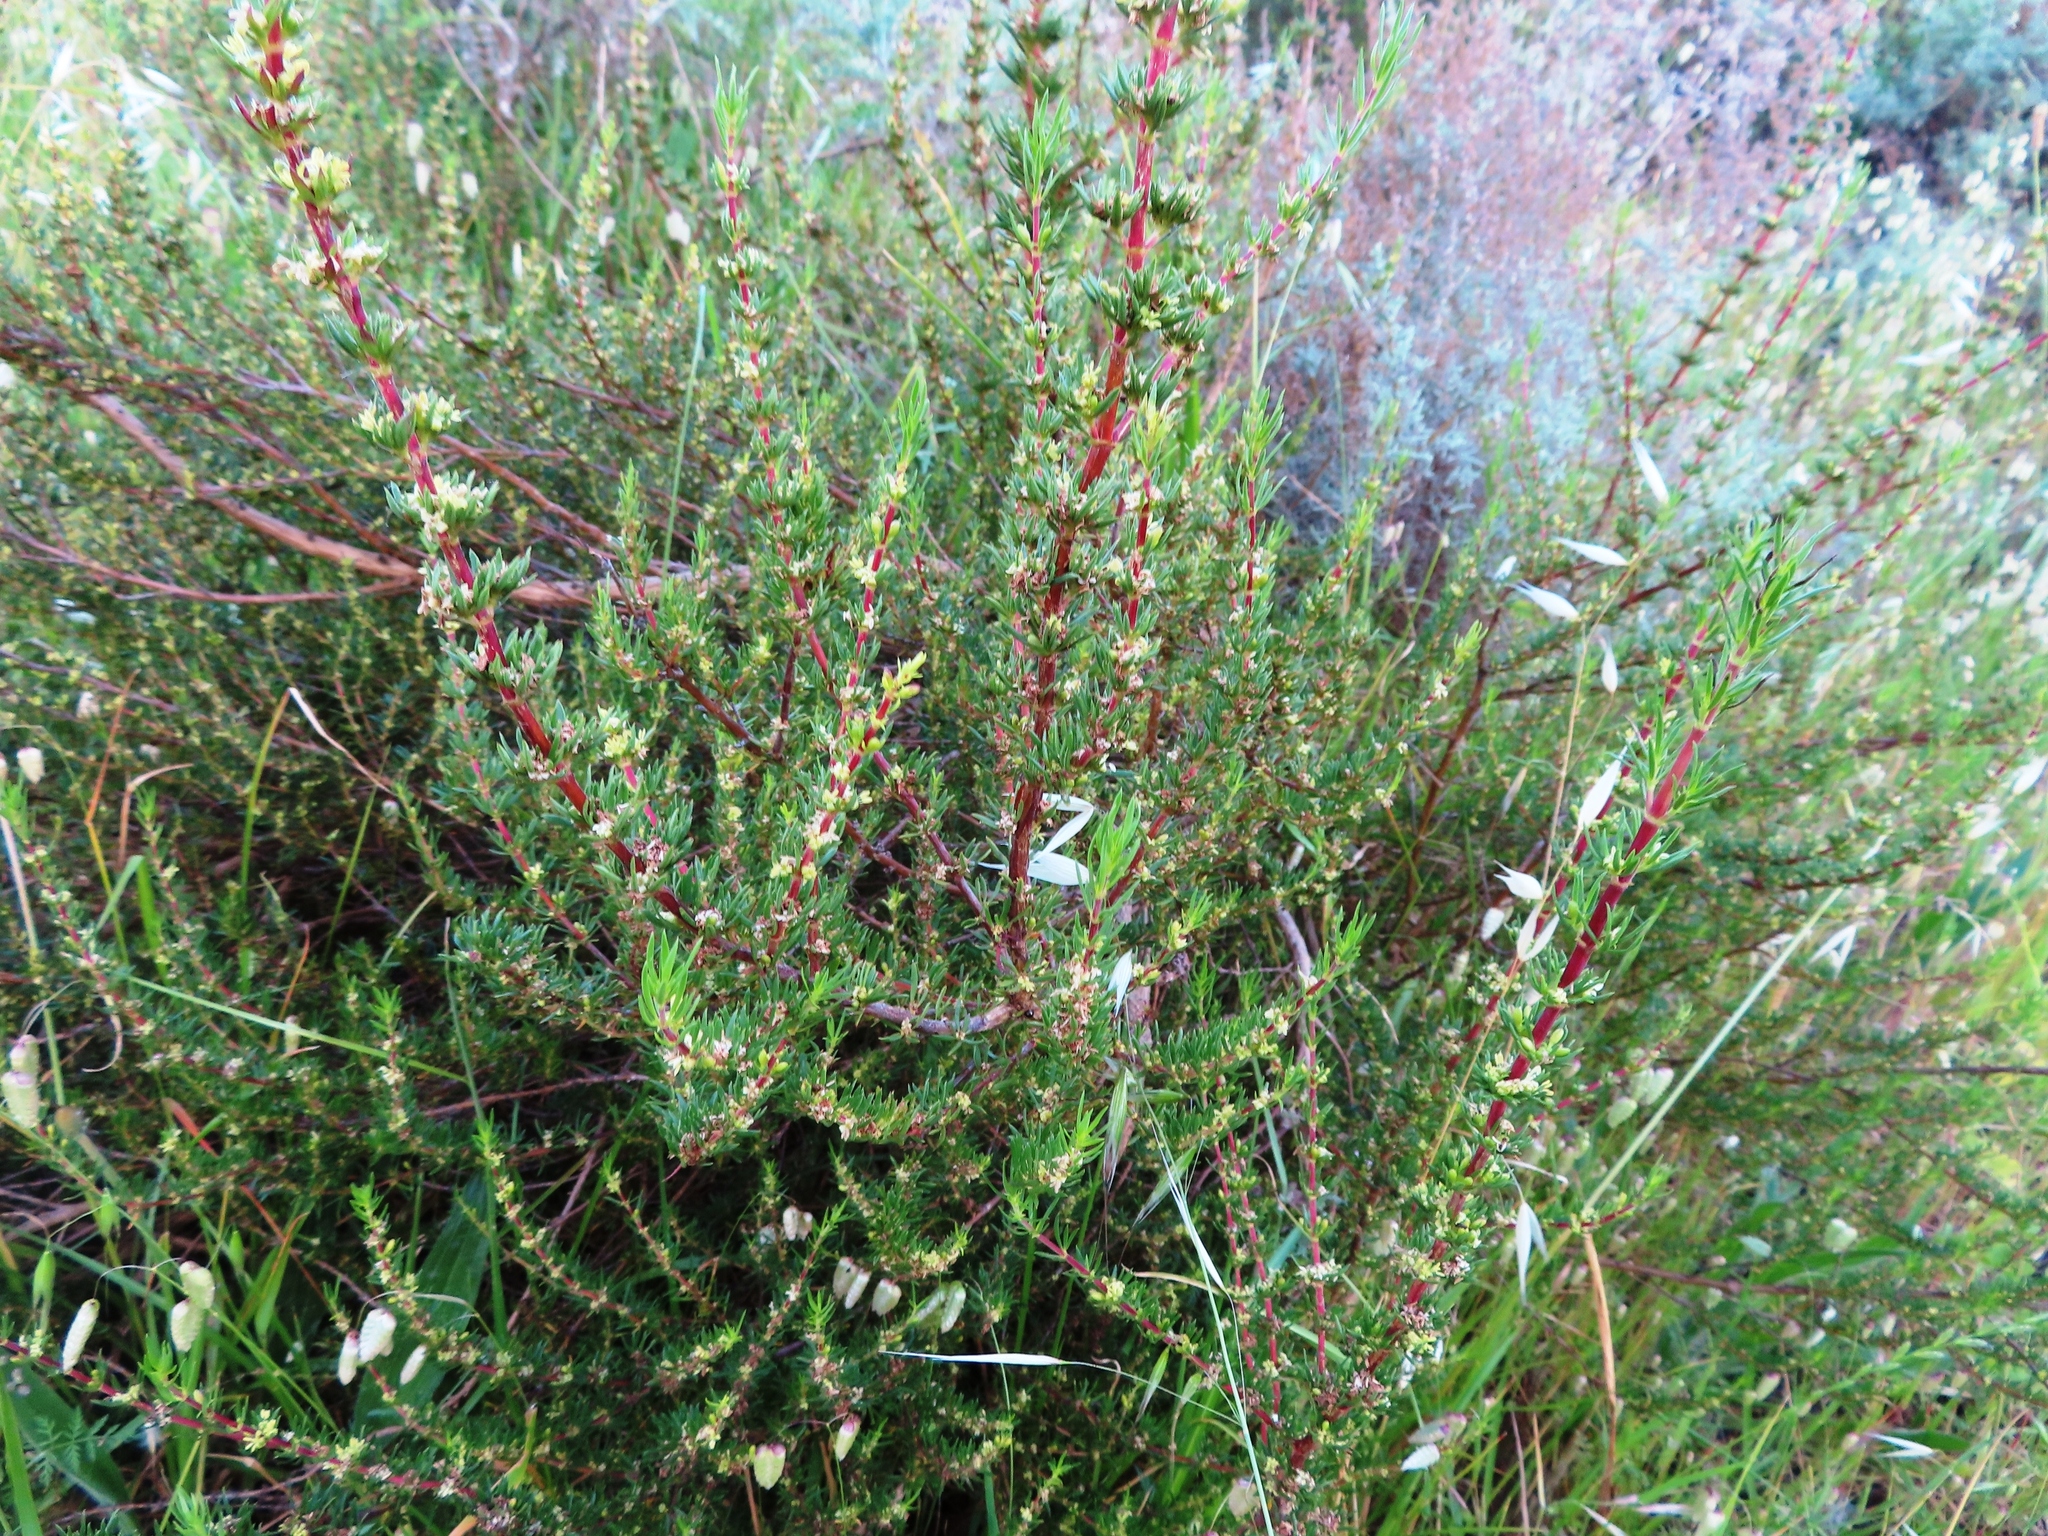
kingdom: Plantae
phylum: Tracheophyta
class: Magnoliopsida
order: Gentianales
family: Rubiaceae
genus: Anthospermum
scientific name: Anthospermum aethiopicum
